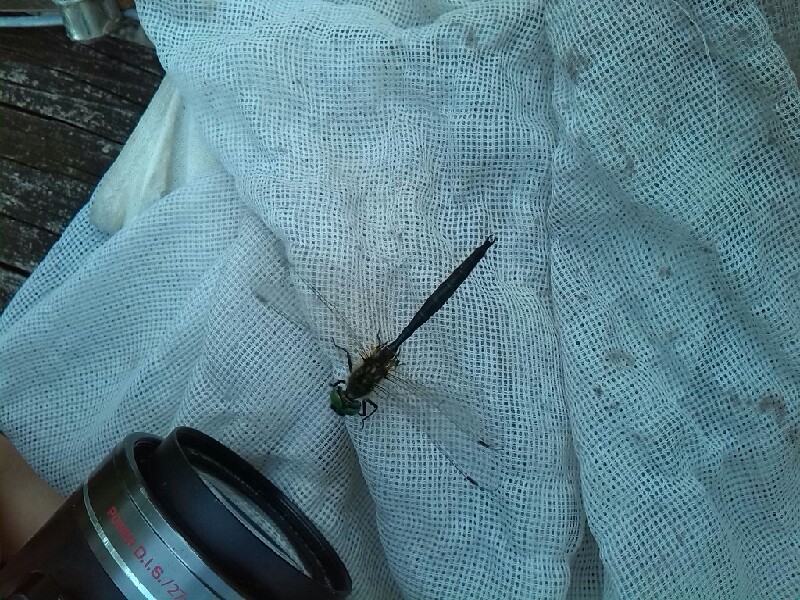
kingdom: Animalia
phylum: Arthropoda
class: Insecta
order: Odonata
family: Corduliidae
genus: Somatochlora
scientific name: Somatochlora arctica
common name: Northern emerald
